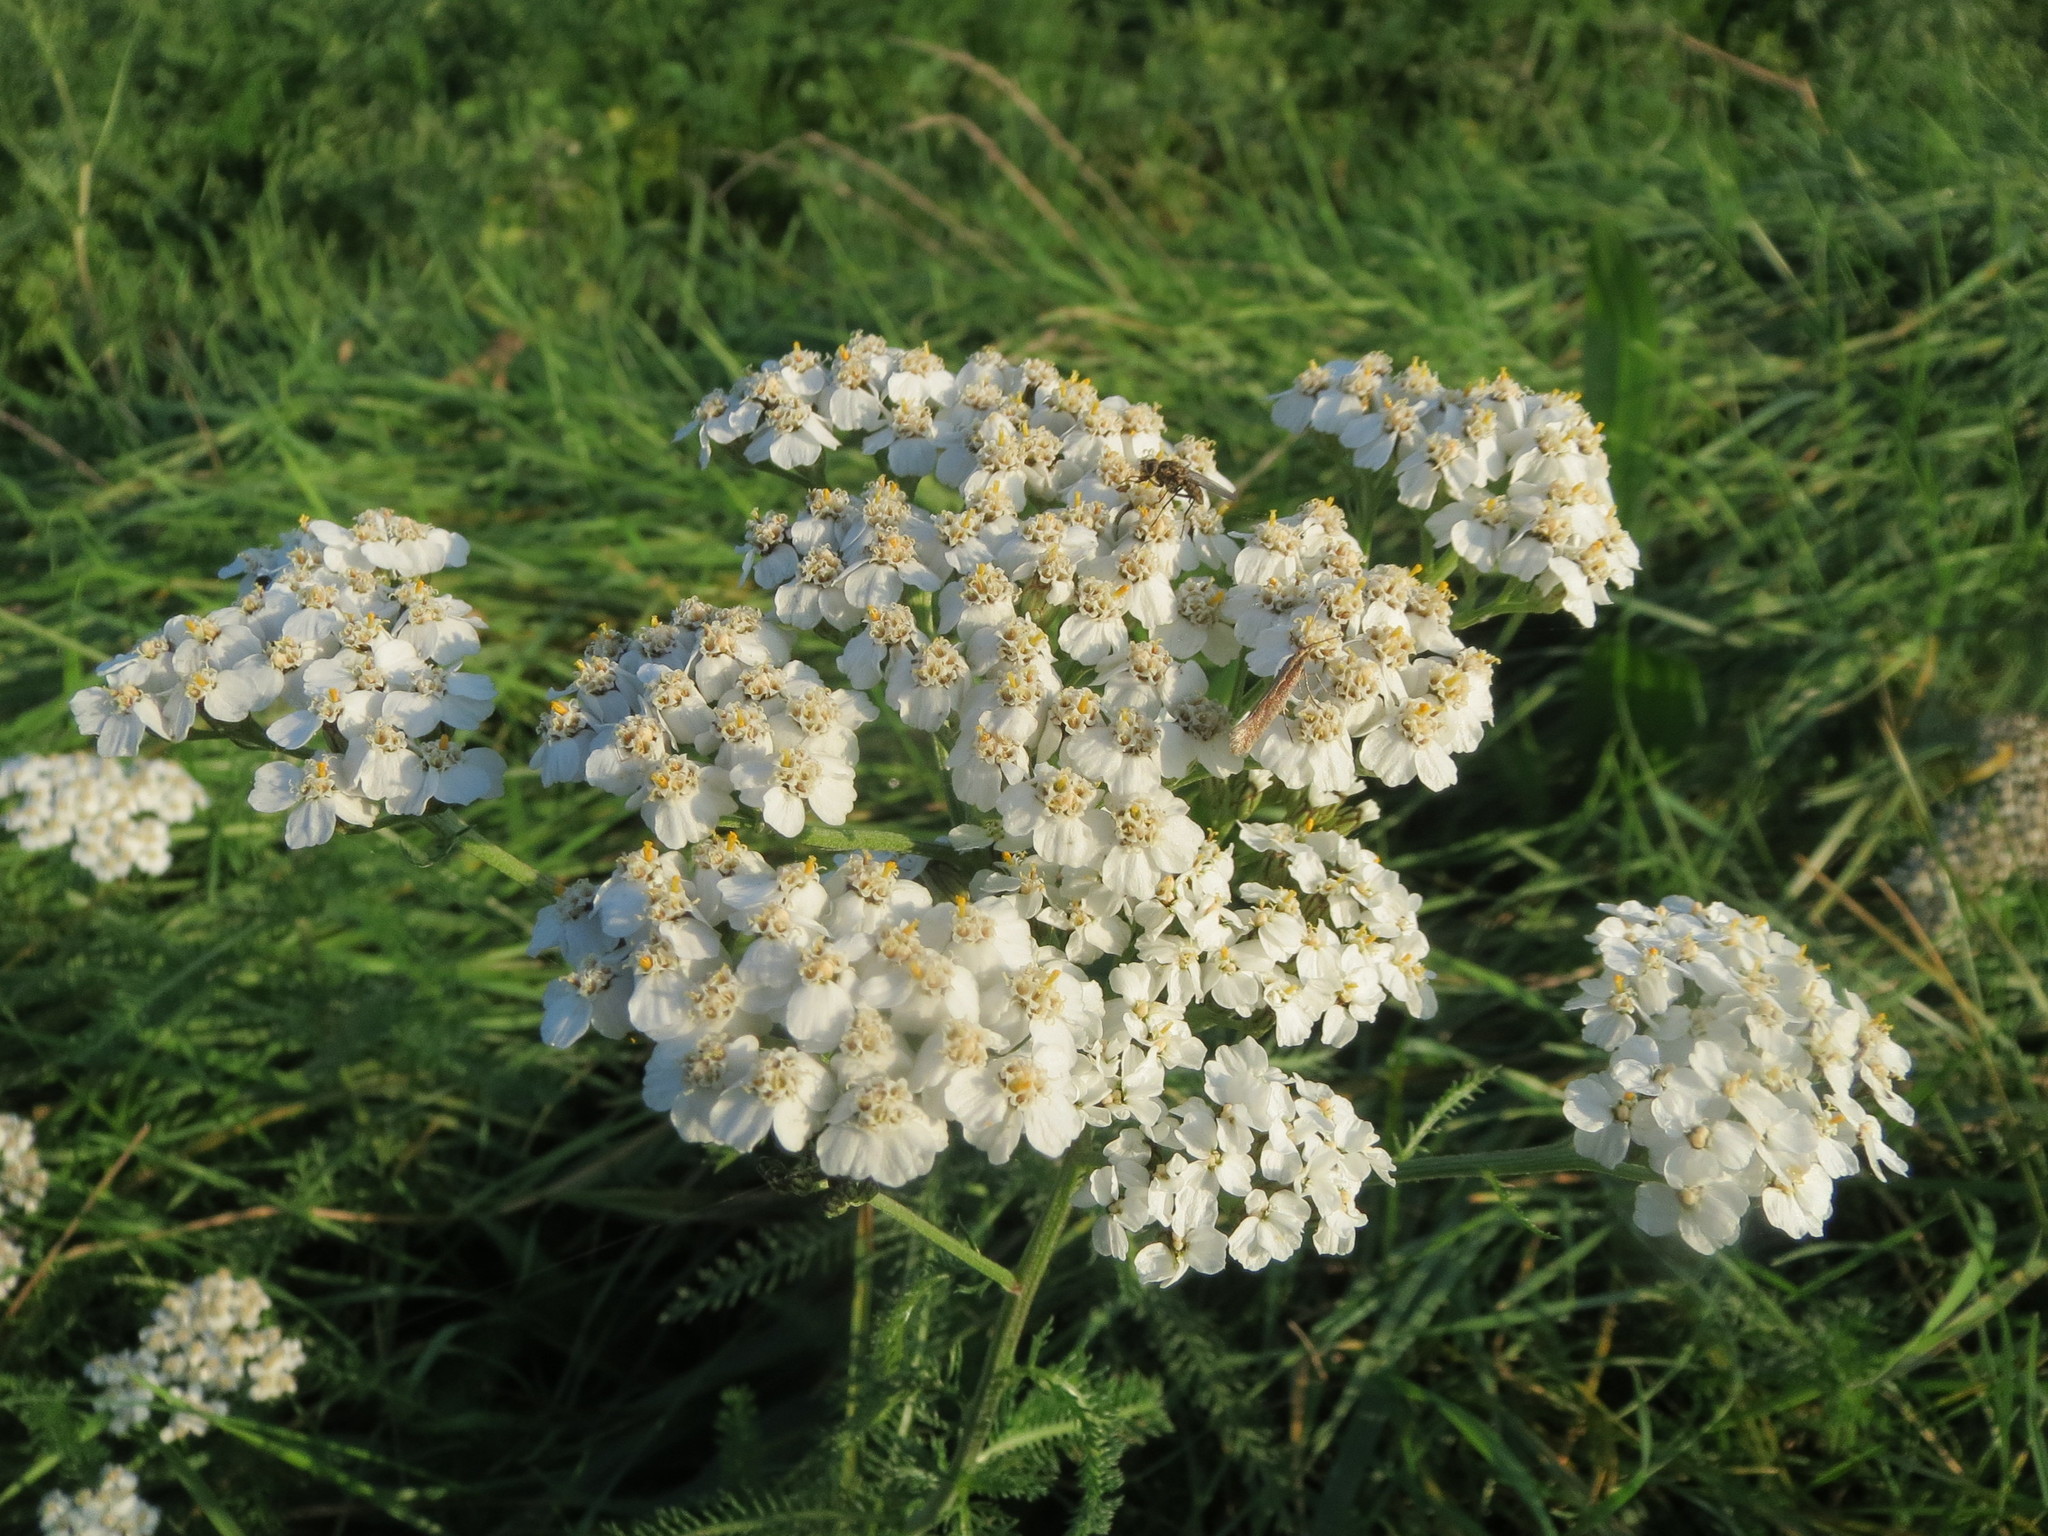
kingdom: Plantae
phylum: Tracheophyta
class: Magnoliopsida
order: Asterales
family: Asteraceae
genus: Achillea
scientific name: Achillea millefolium
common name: Yarrow
